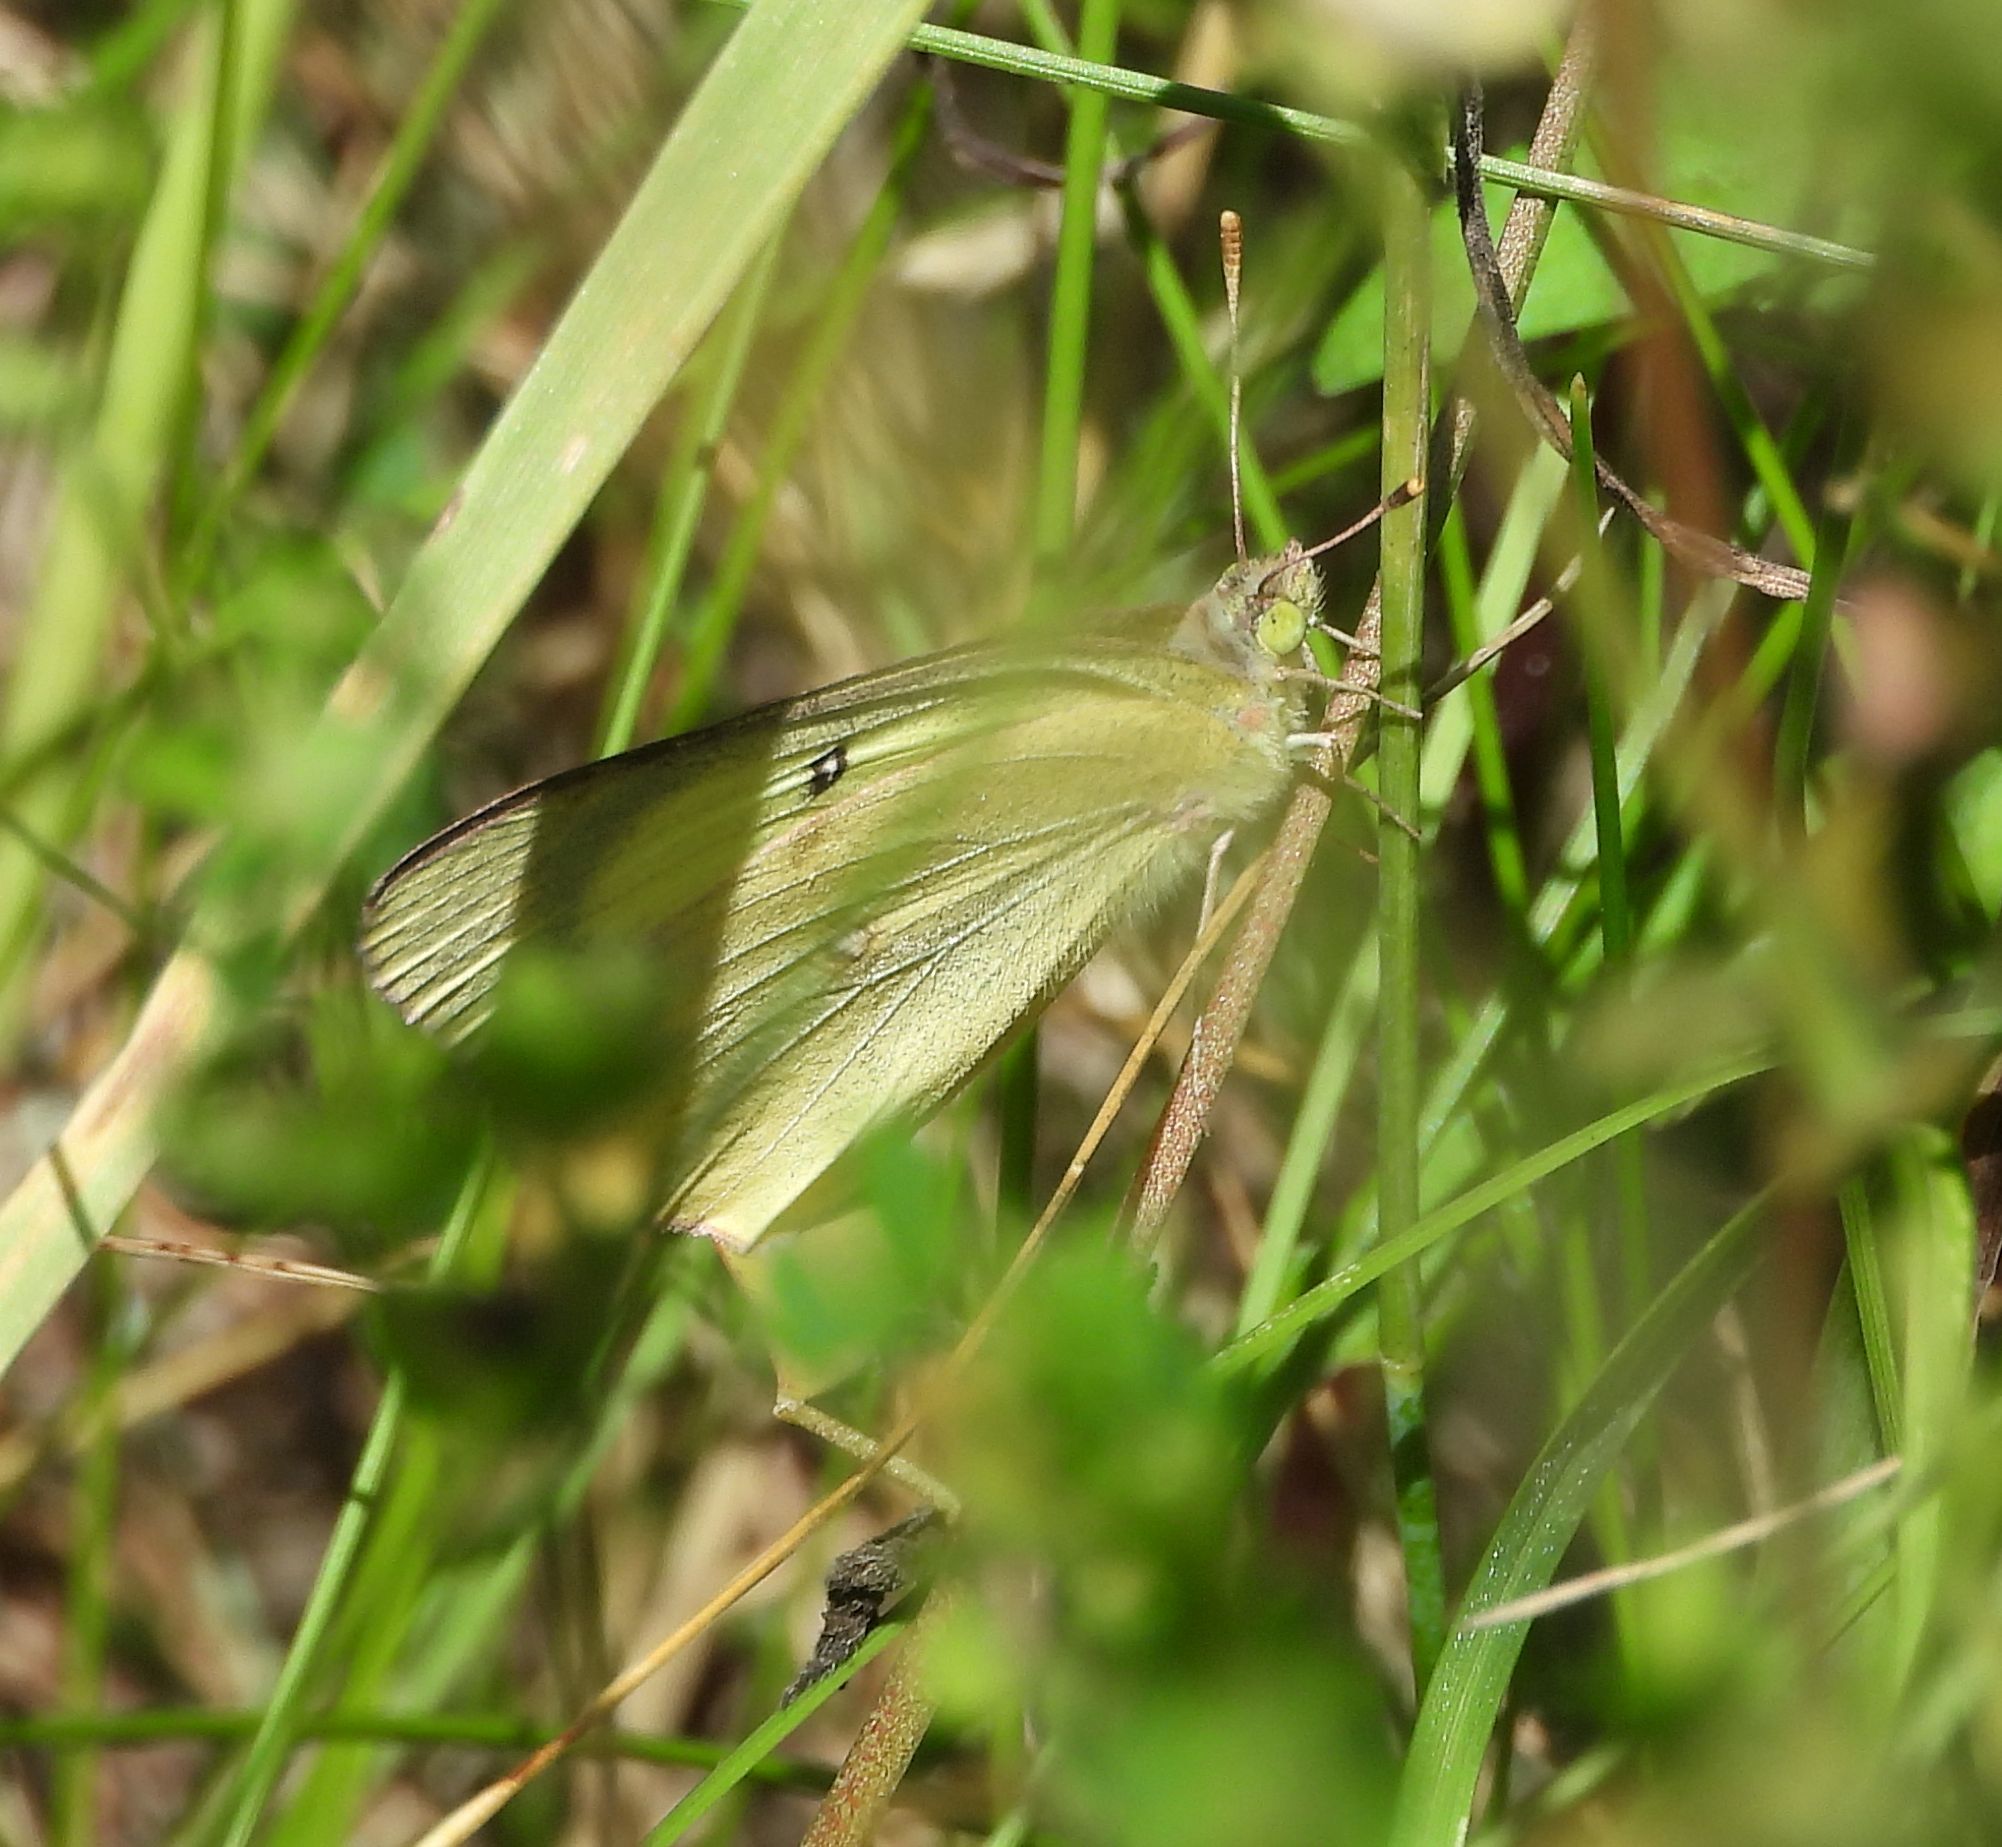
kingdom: Animalia
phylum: Arthropoda
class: Insecta
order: Lepidoptera
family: Pieridae
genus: Colias
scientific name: Colias philodice
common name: Clouded sulphur
